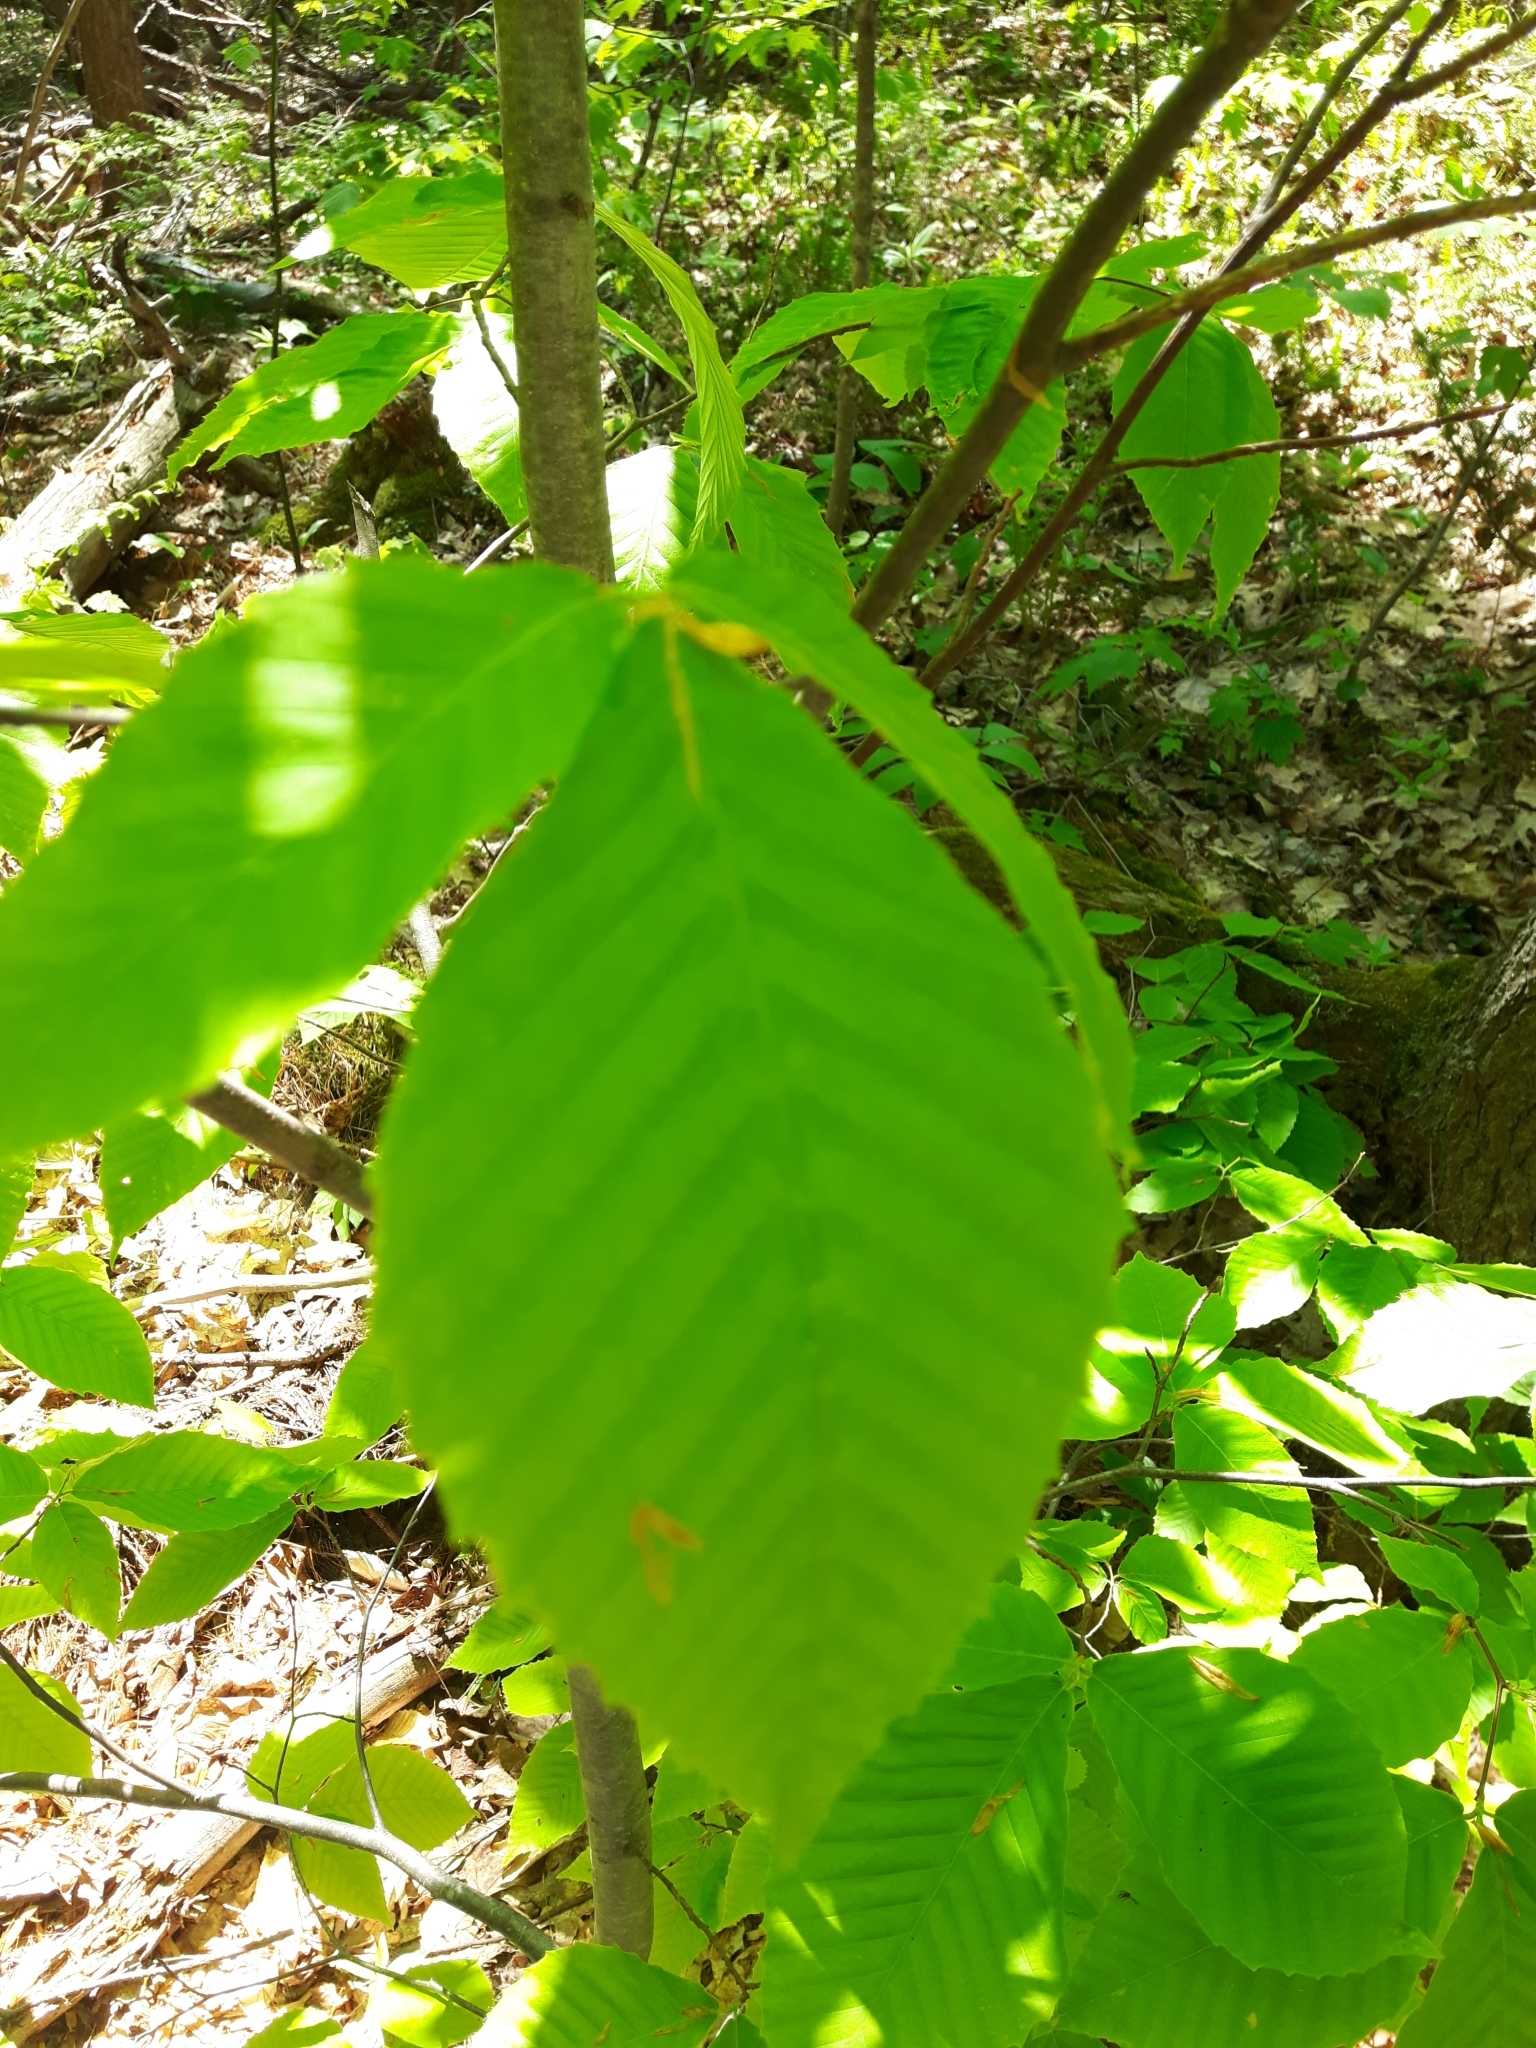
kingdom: Plantae
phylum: Tracheophyta
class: Magnoliopsida
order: Fagales
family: Fagaceae
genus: Fagus
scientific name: Fagus grandifolia
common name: American beech
